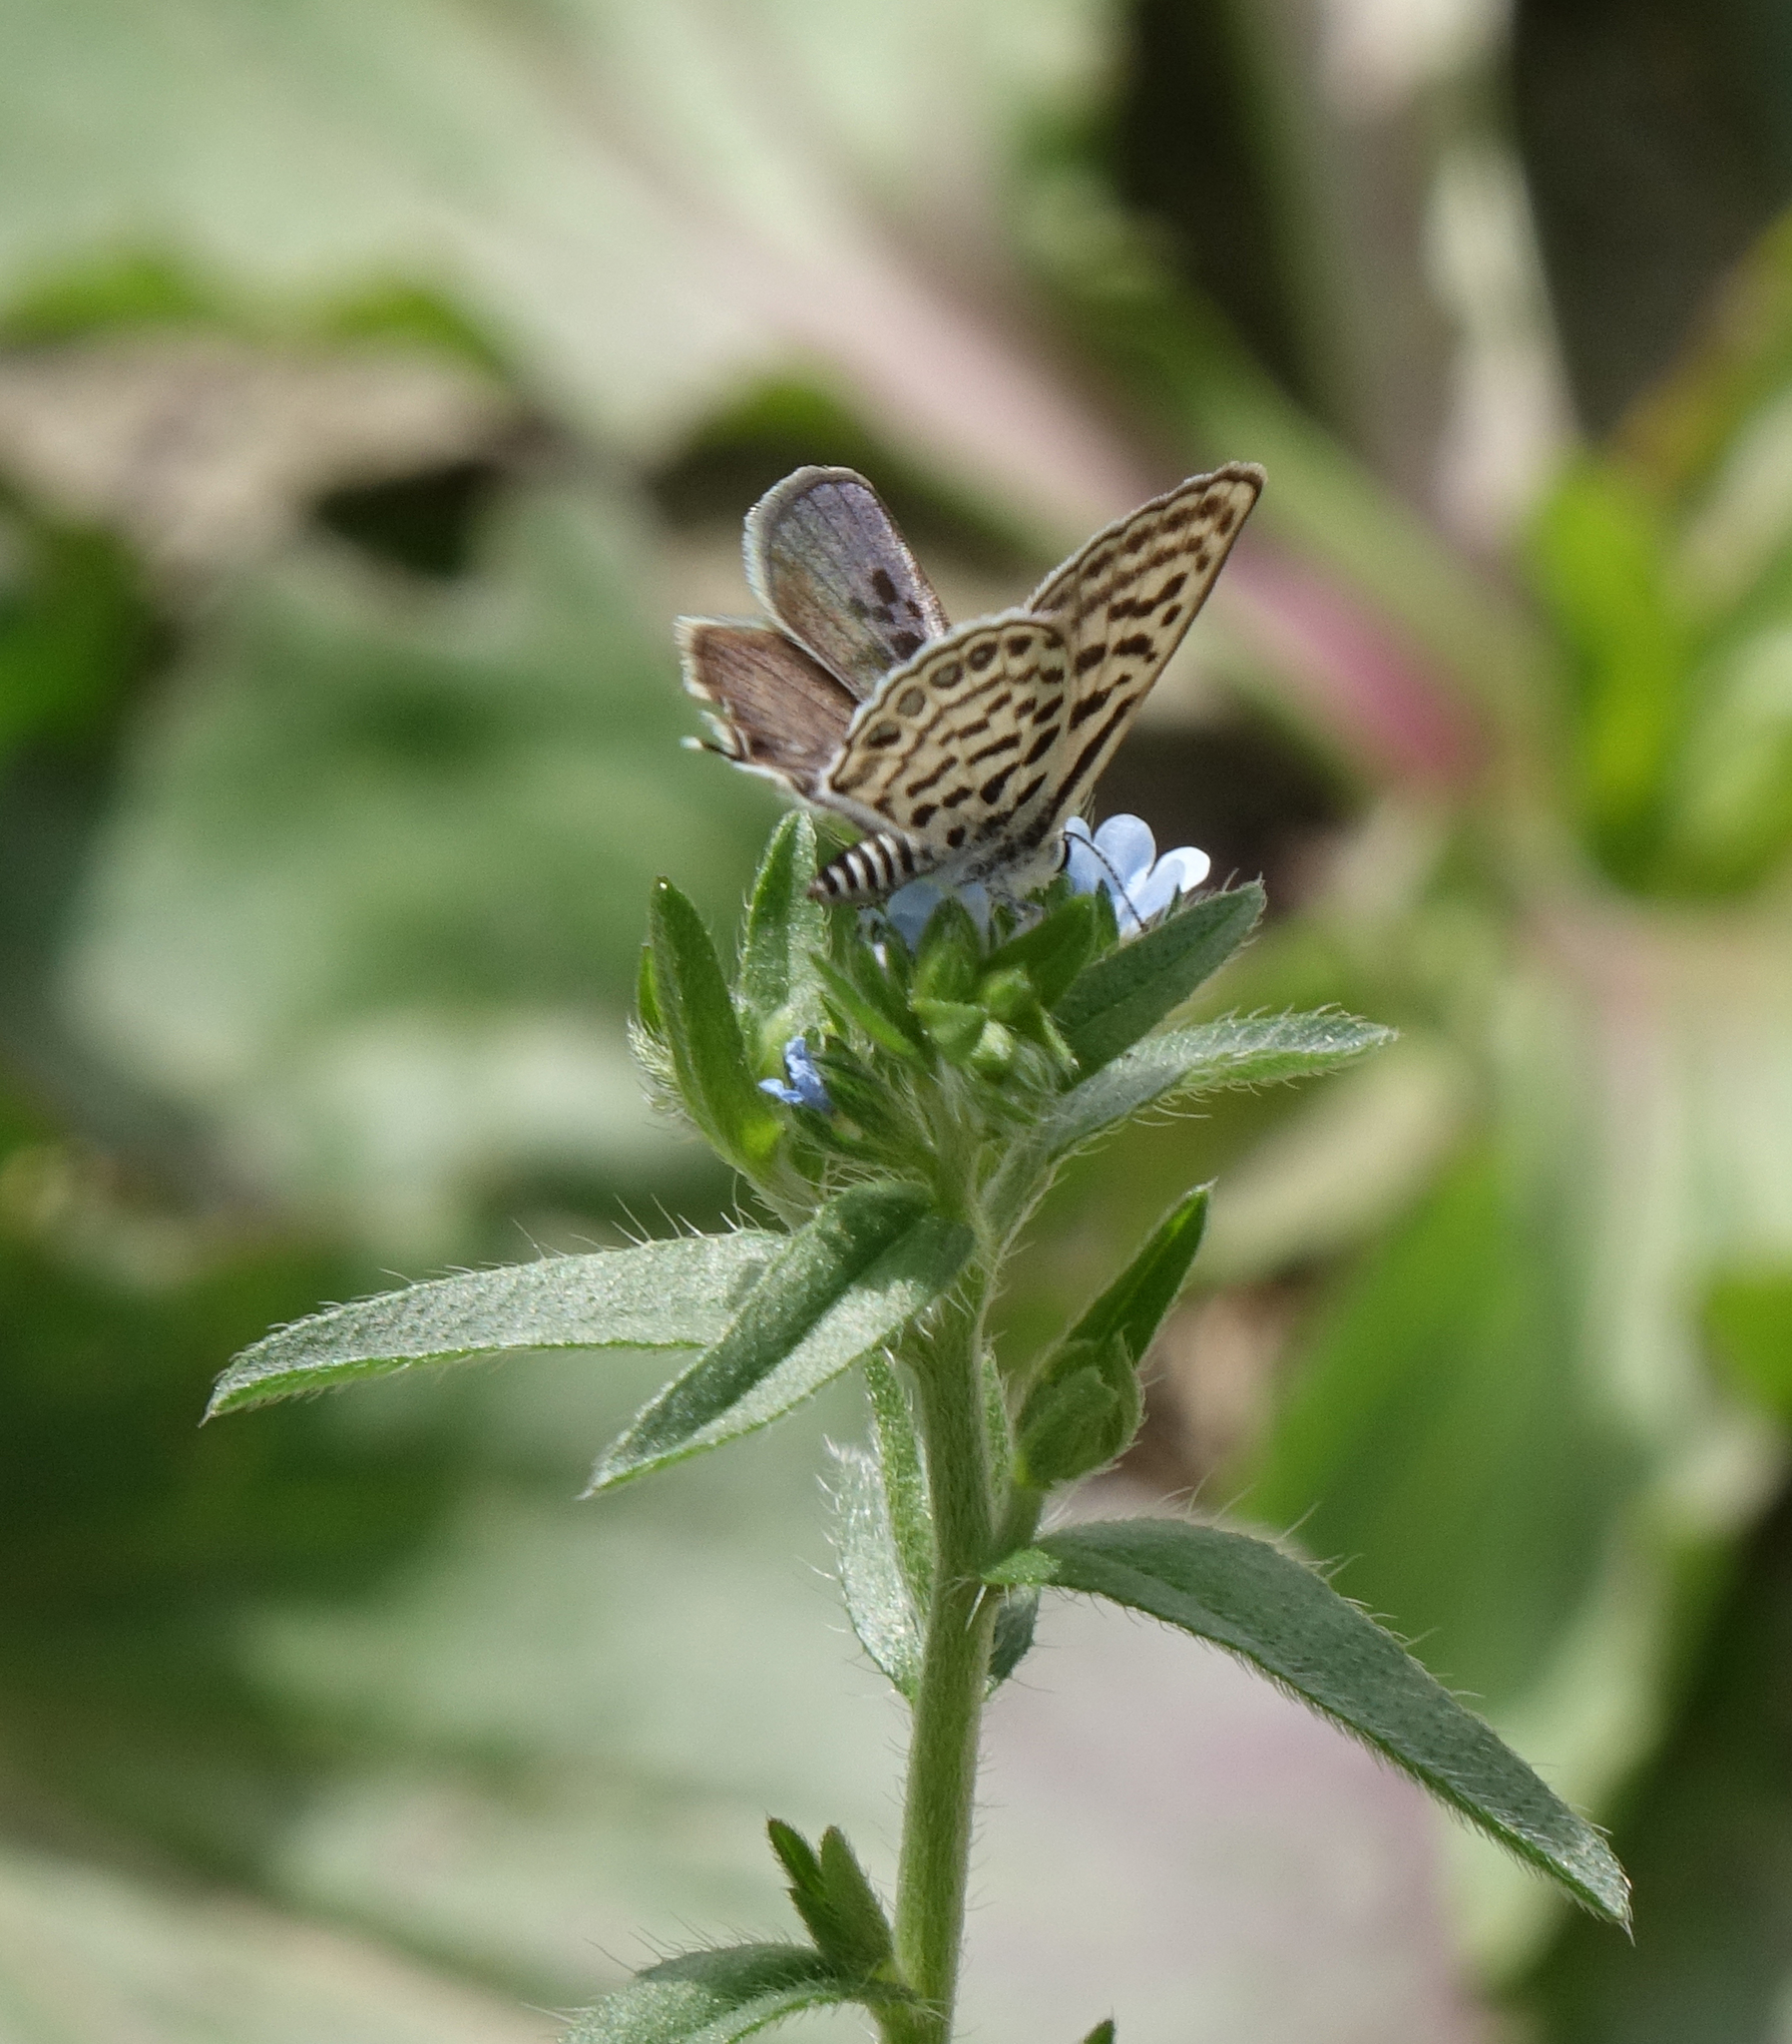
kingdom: Animalia
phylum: Arthropoda
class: Insecta
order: Lepidoptera
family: Lycaenidae
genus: Tarucus
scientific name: Tarucus balkanica
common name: Little tiger blue
